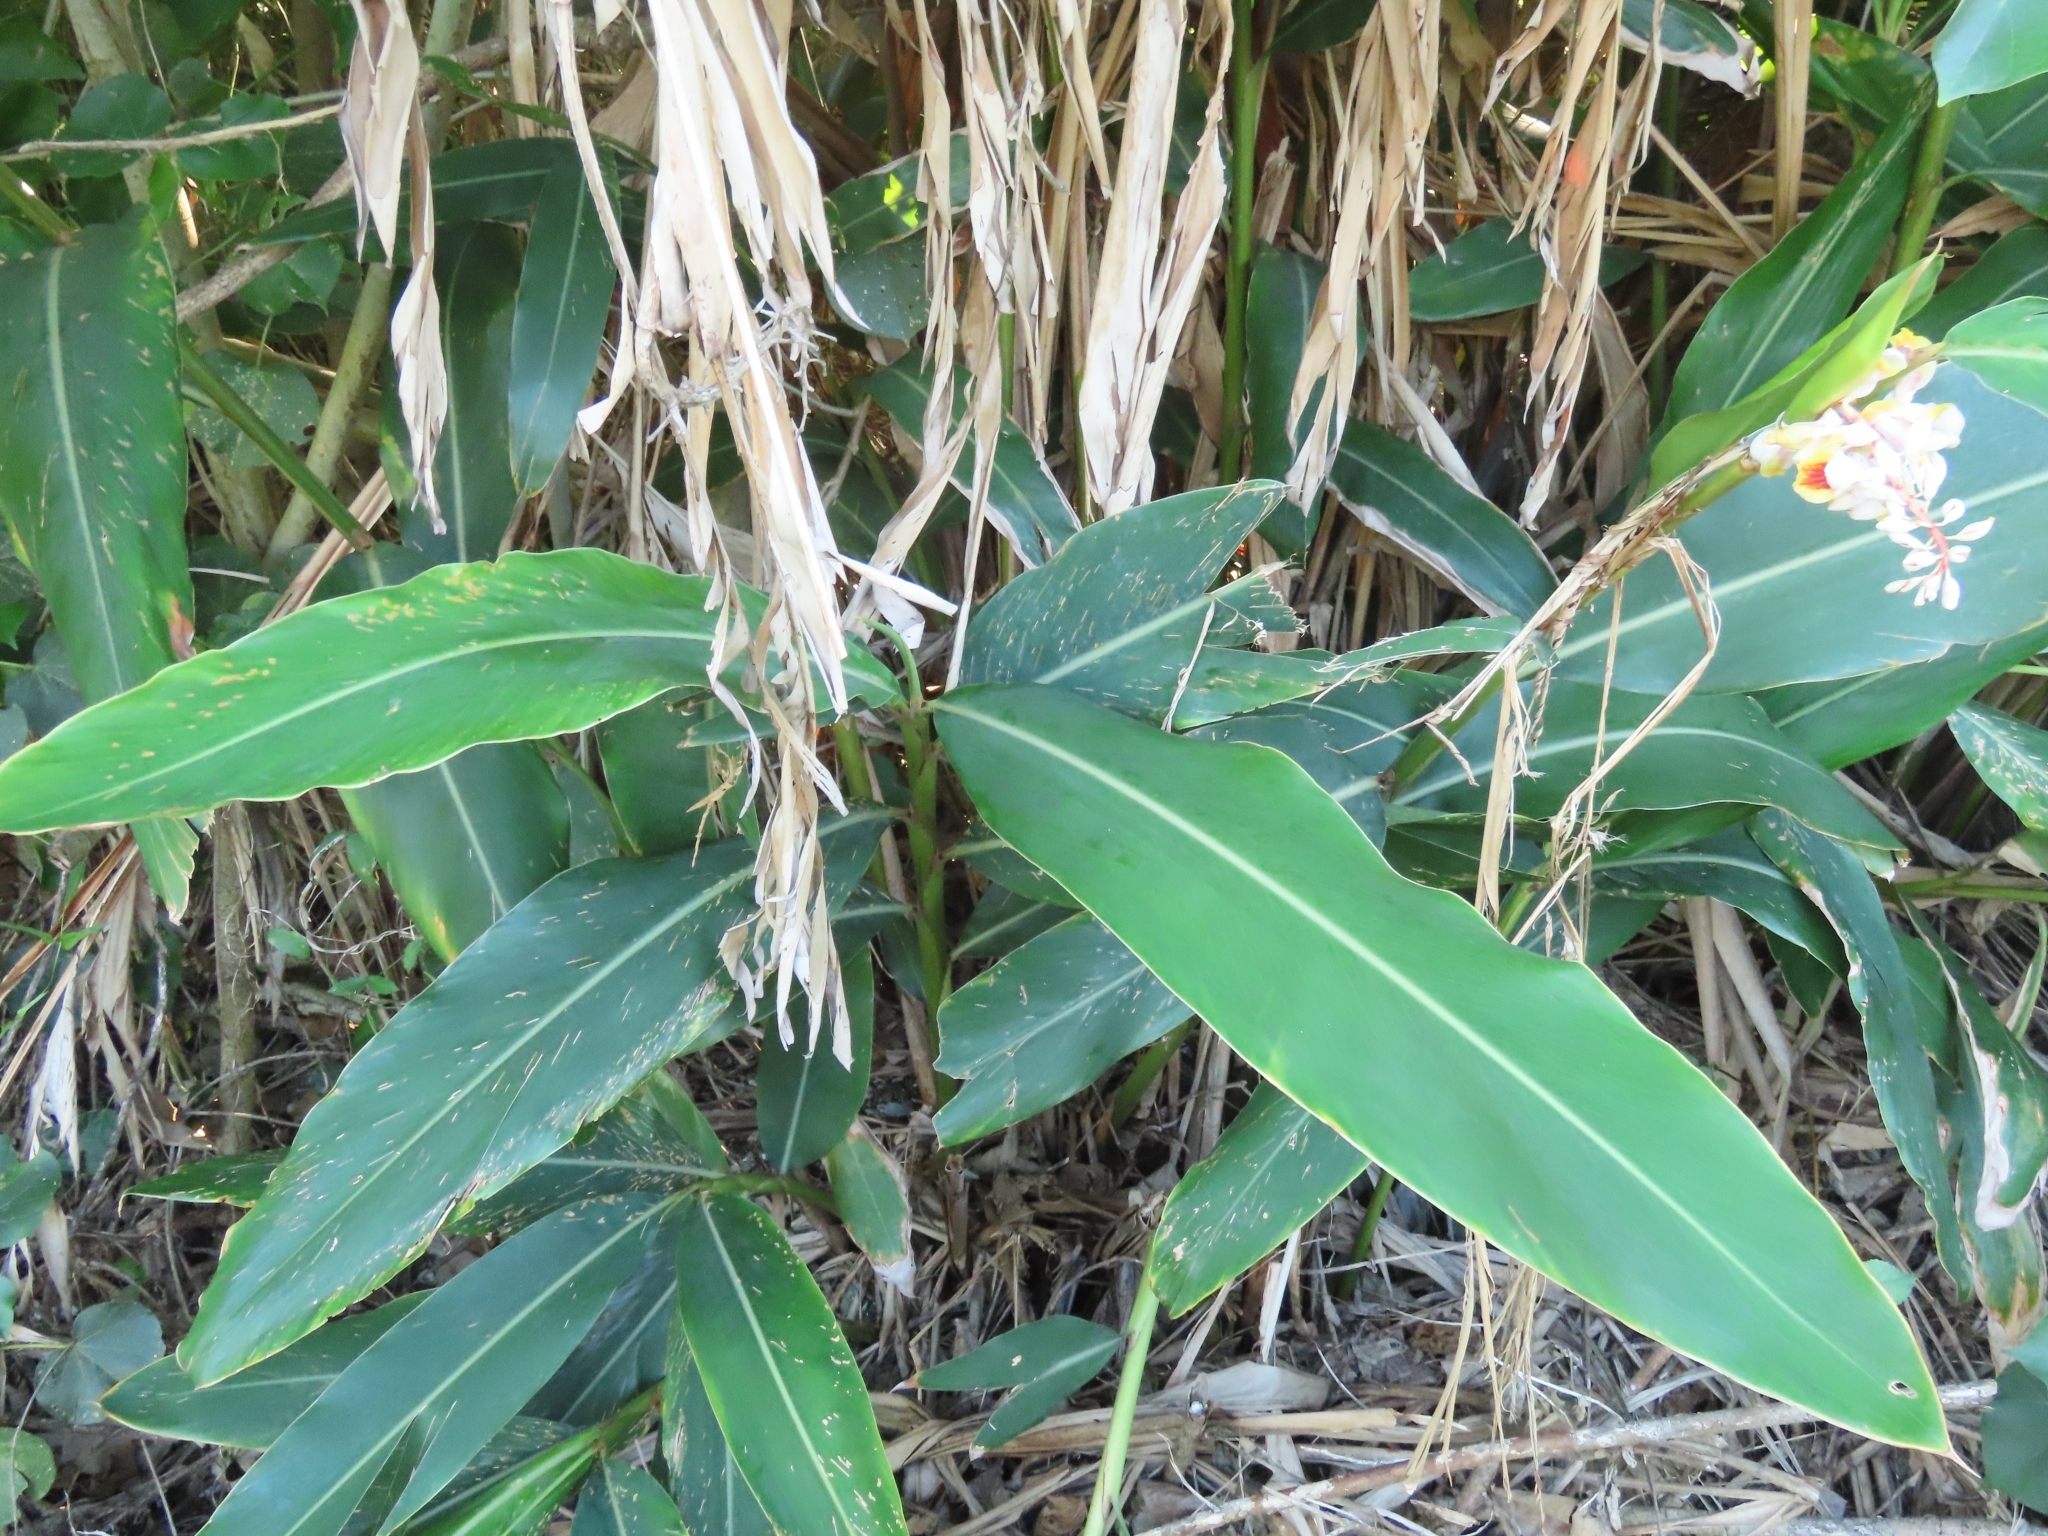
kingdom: Plantae
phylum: Tracheophyta
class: Liliopsida
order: Zingiberales
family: Zingiberaceae
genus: Alpinia
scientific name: Alpinia zerumbet
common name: Shellplant
